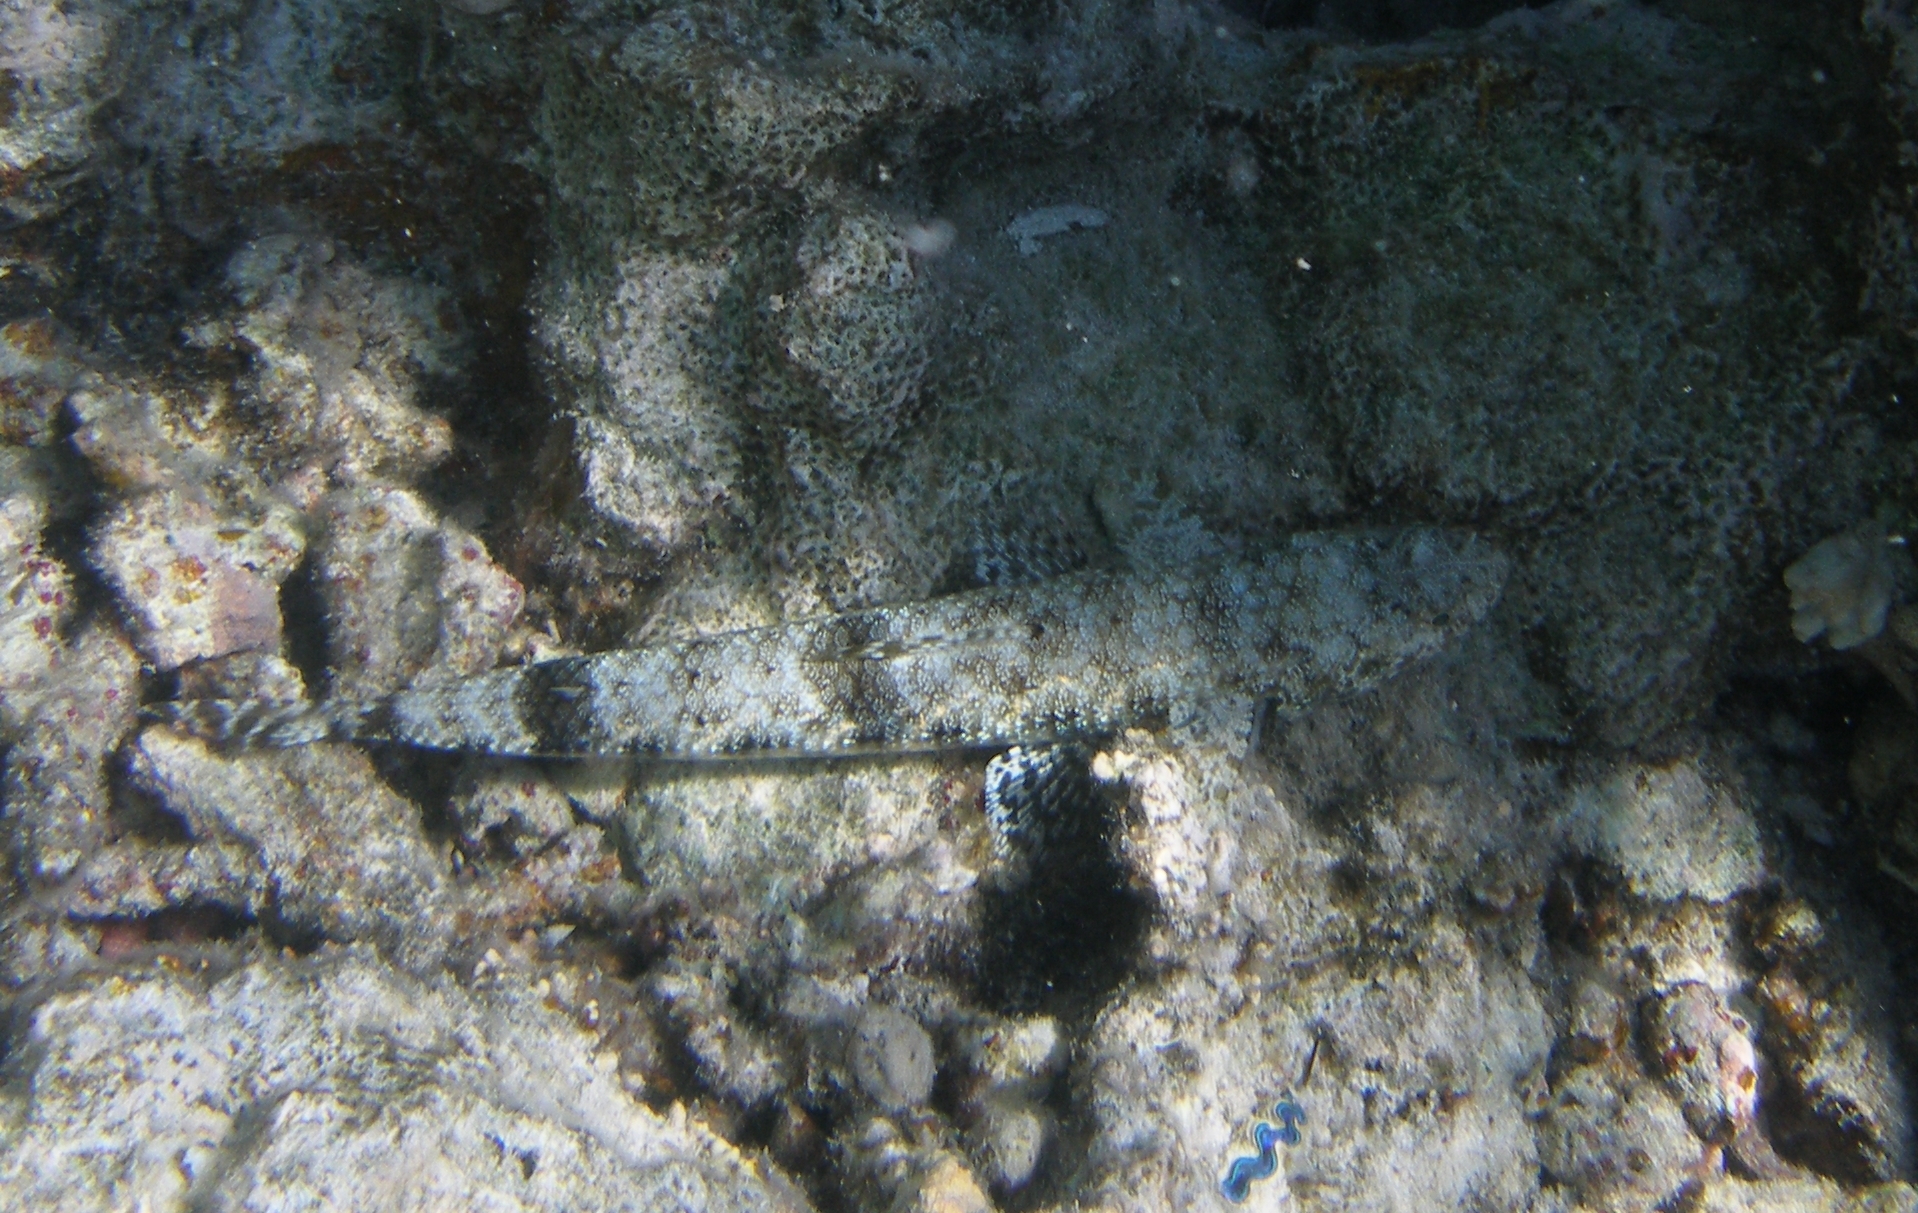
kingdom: Animalia
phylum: Chordata
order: Aulopiformes
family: Synodontidae
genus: Saurida
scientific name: Saurida gracilis
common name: Slender lizardfish
